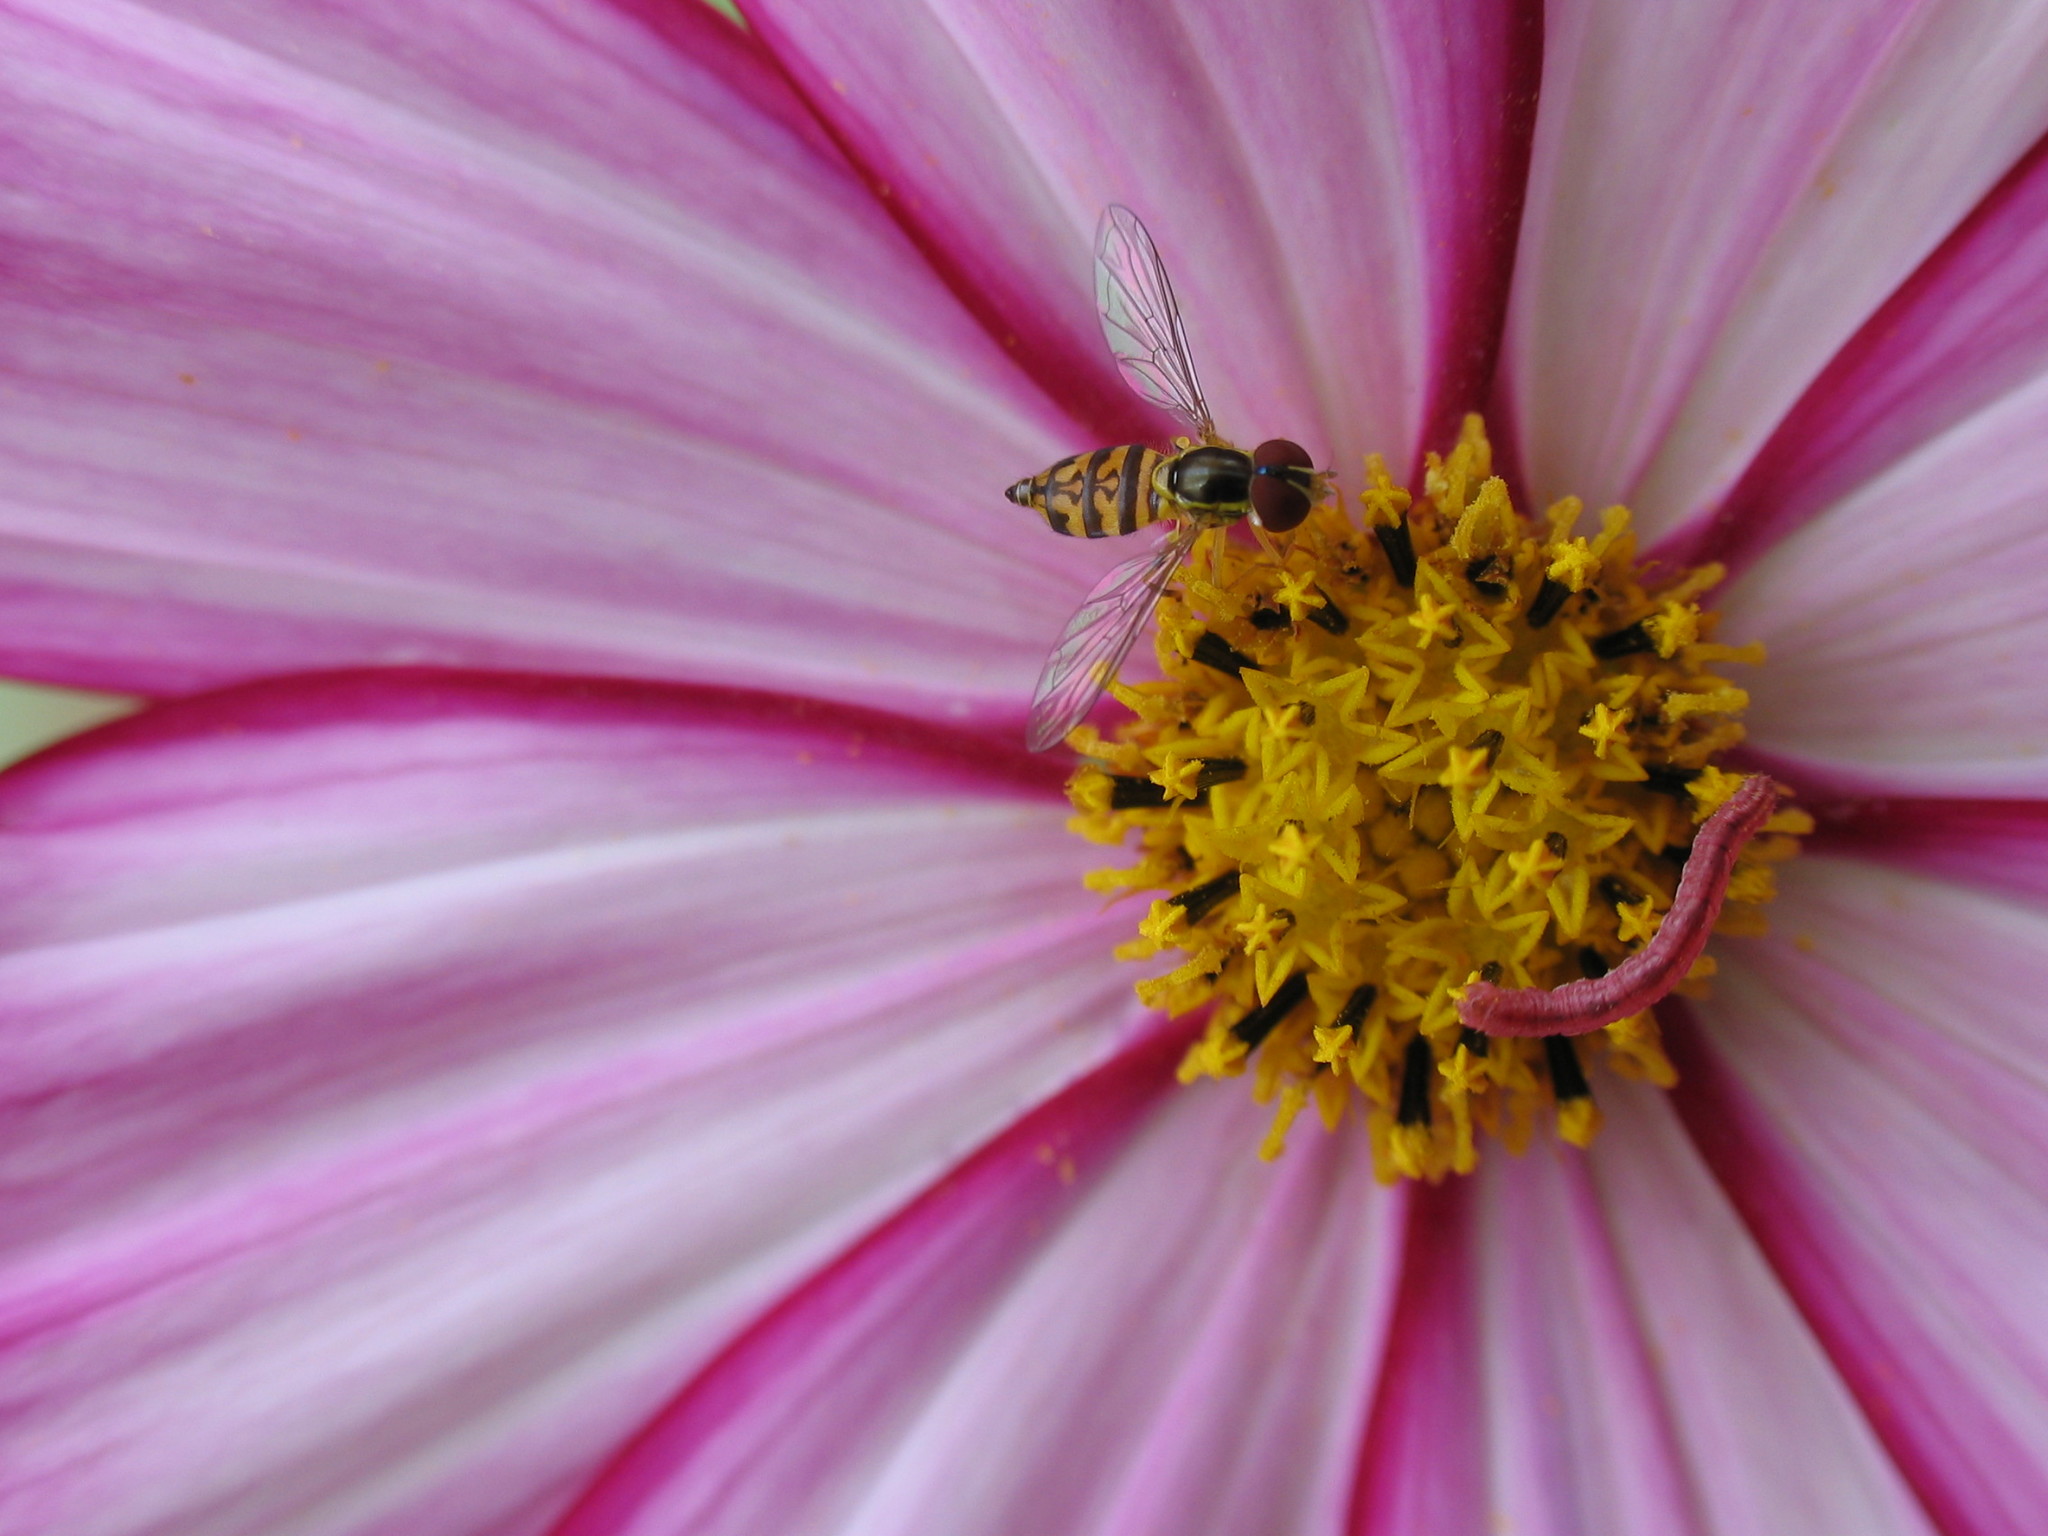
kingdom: Animalia
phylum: Arthropoda
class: Insecta
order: Diptera
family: Syrphidae
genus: Toxomerus
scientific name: Toxomerus geminatus
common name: Eastern calligrapher
